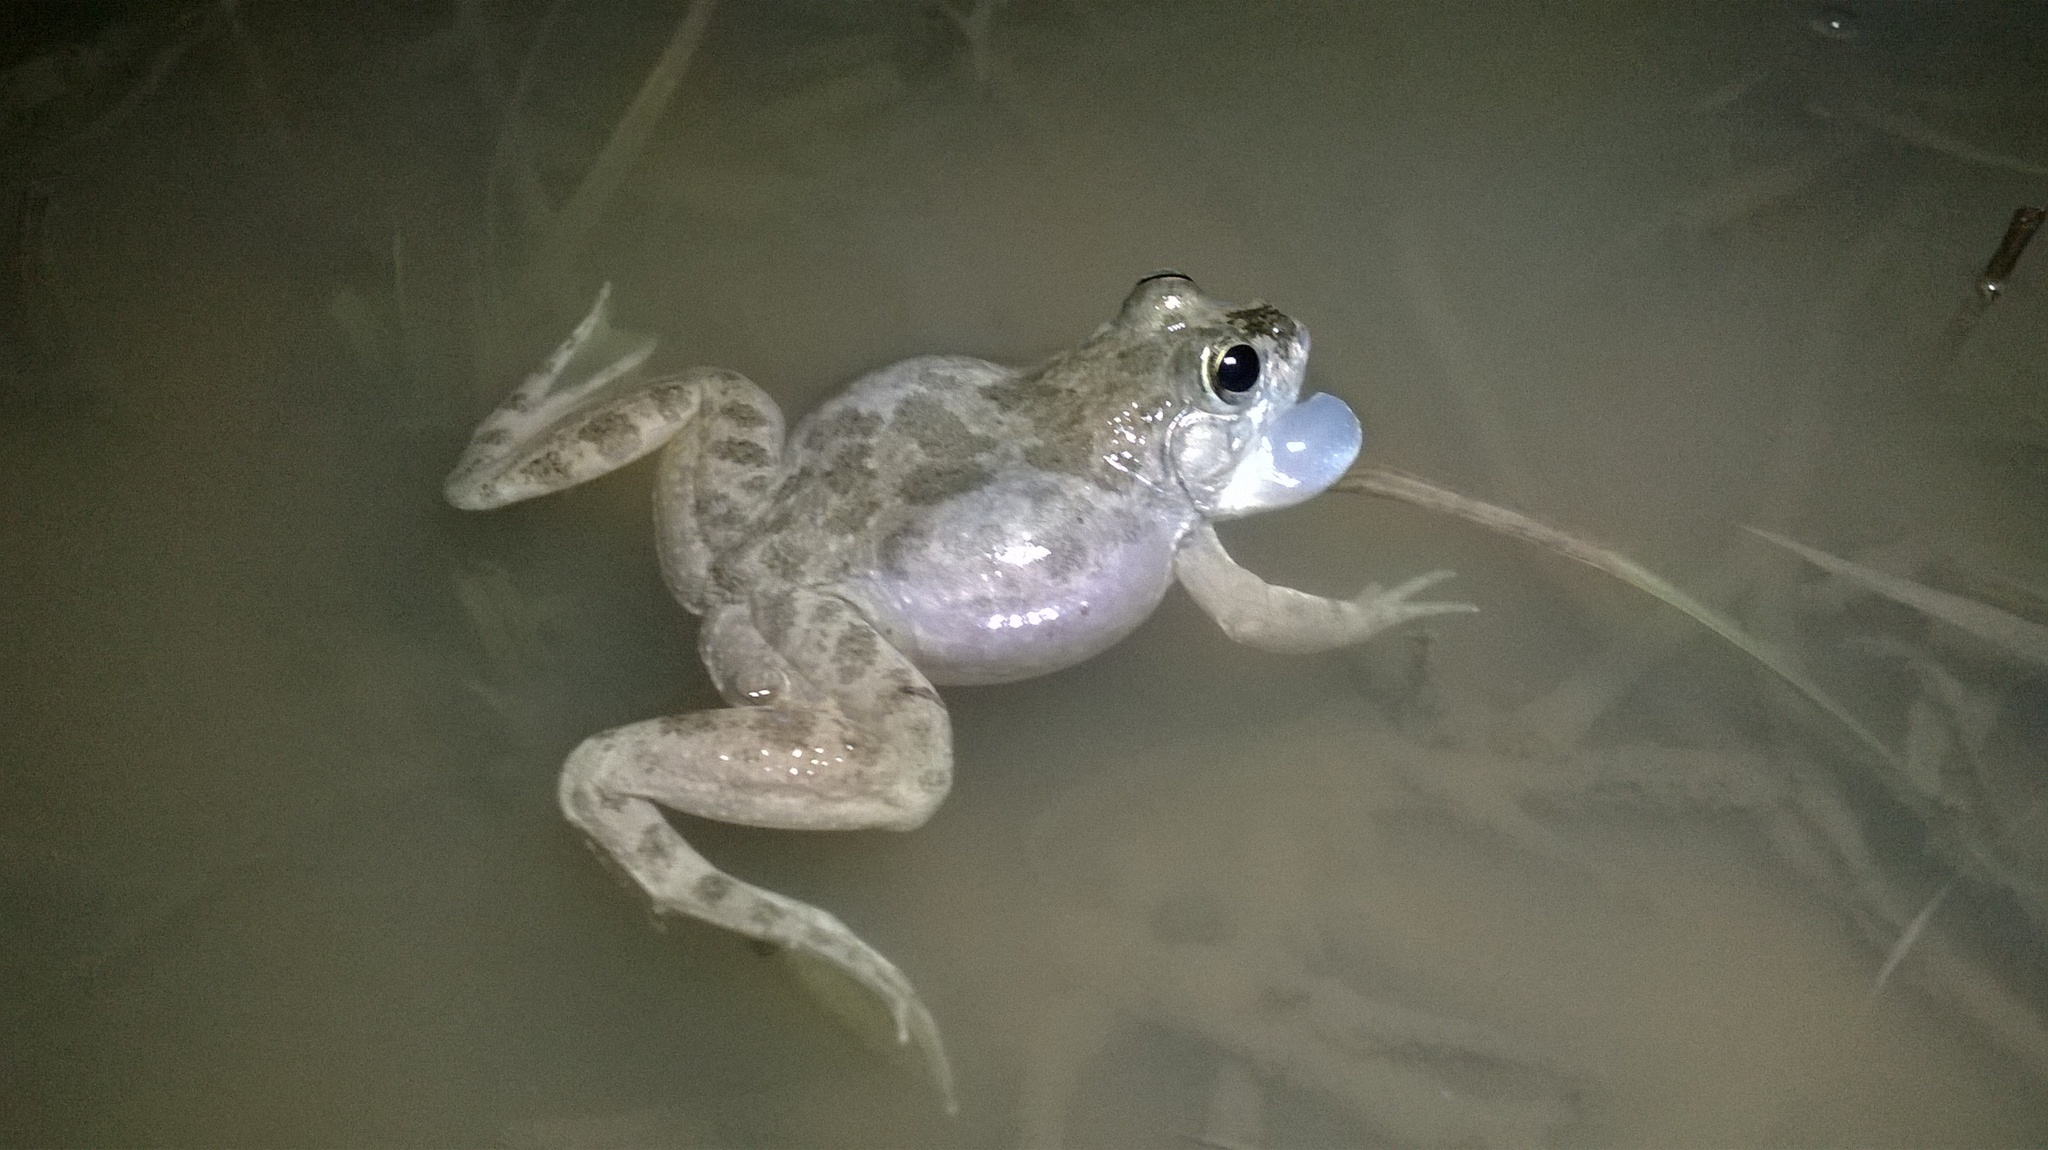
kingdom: Animalia
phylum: Chordata
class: Amphibia
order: Anura
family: Dicroglossidae
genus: Euphlyctis
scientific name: Euphlyctis cyanophlyctis
